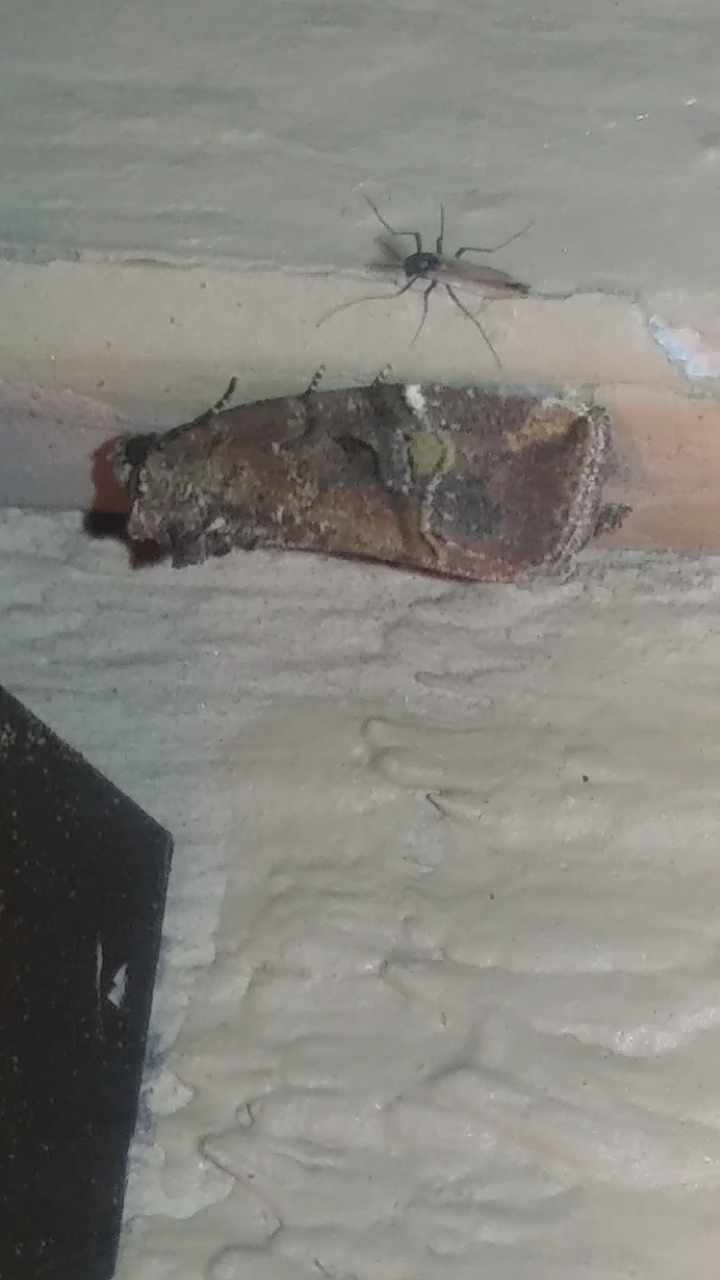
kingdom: Animalia
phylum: Arthropoda
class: Insecta
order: Lepidoptera
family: Noctuidae
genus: Elaphria
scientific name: Elaphria versicolor
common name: Fir harlequin
